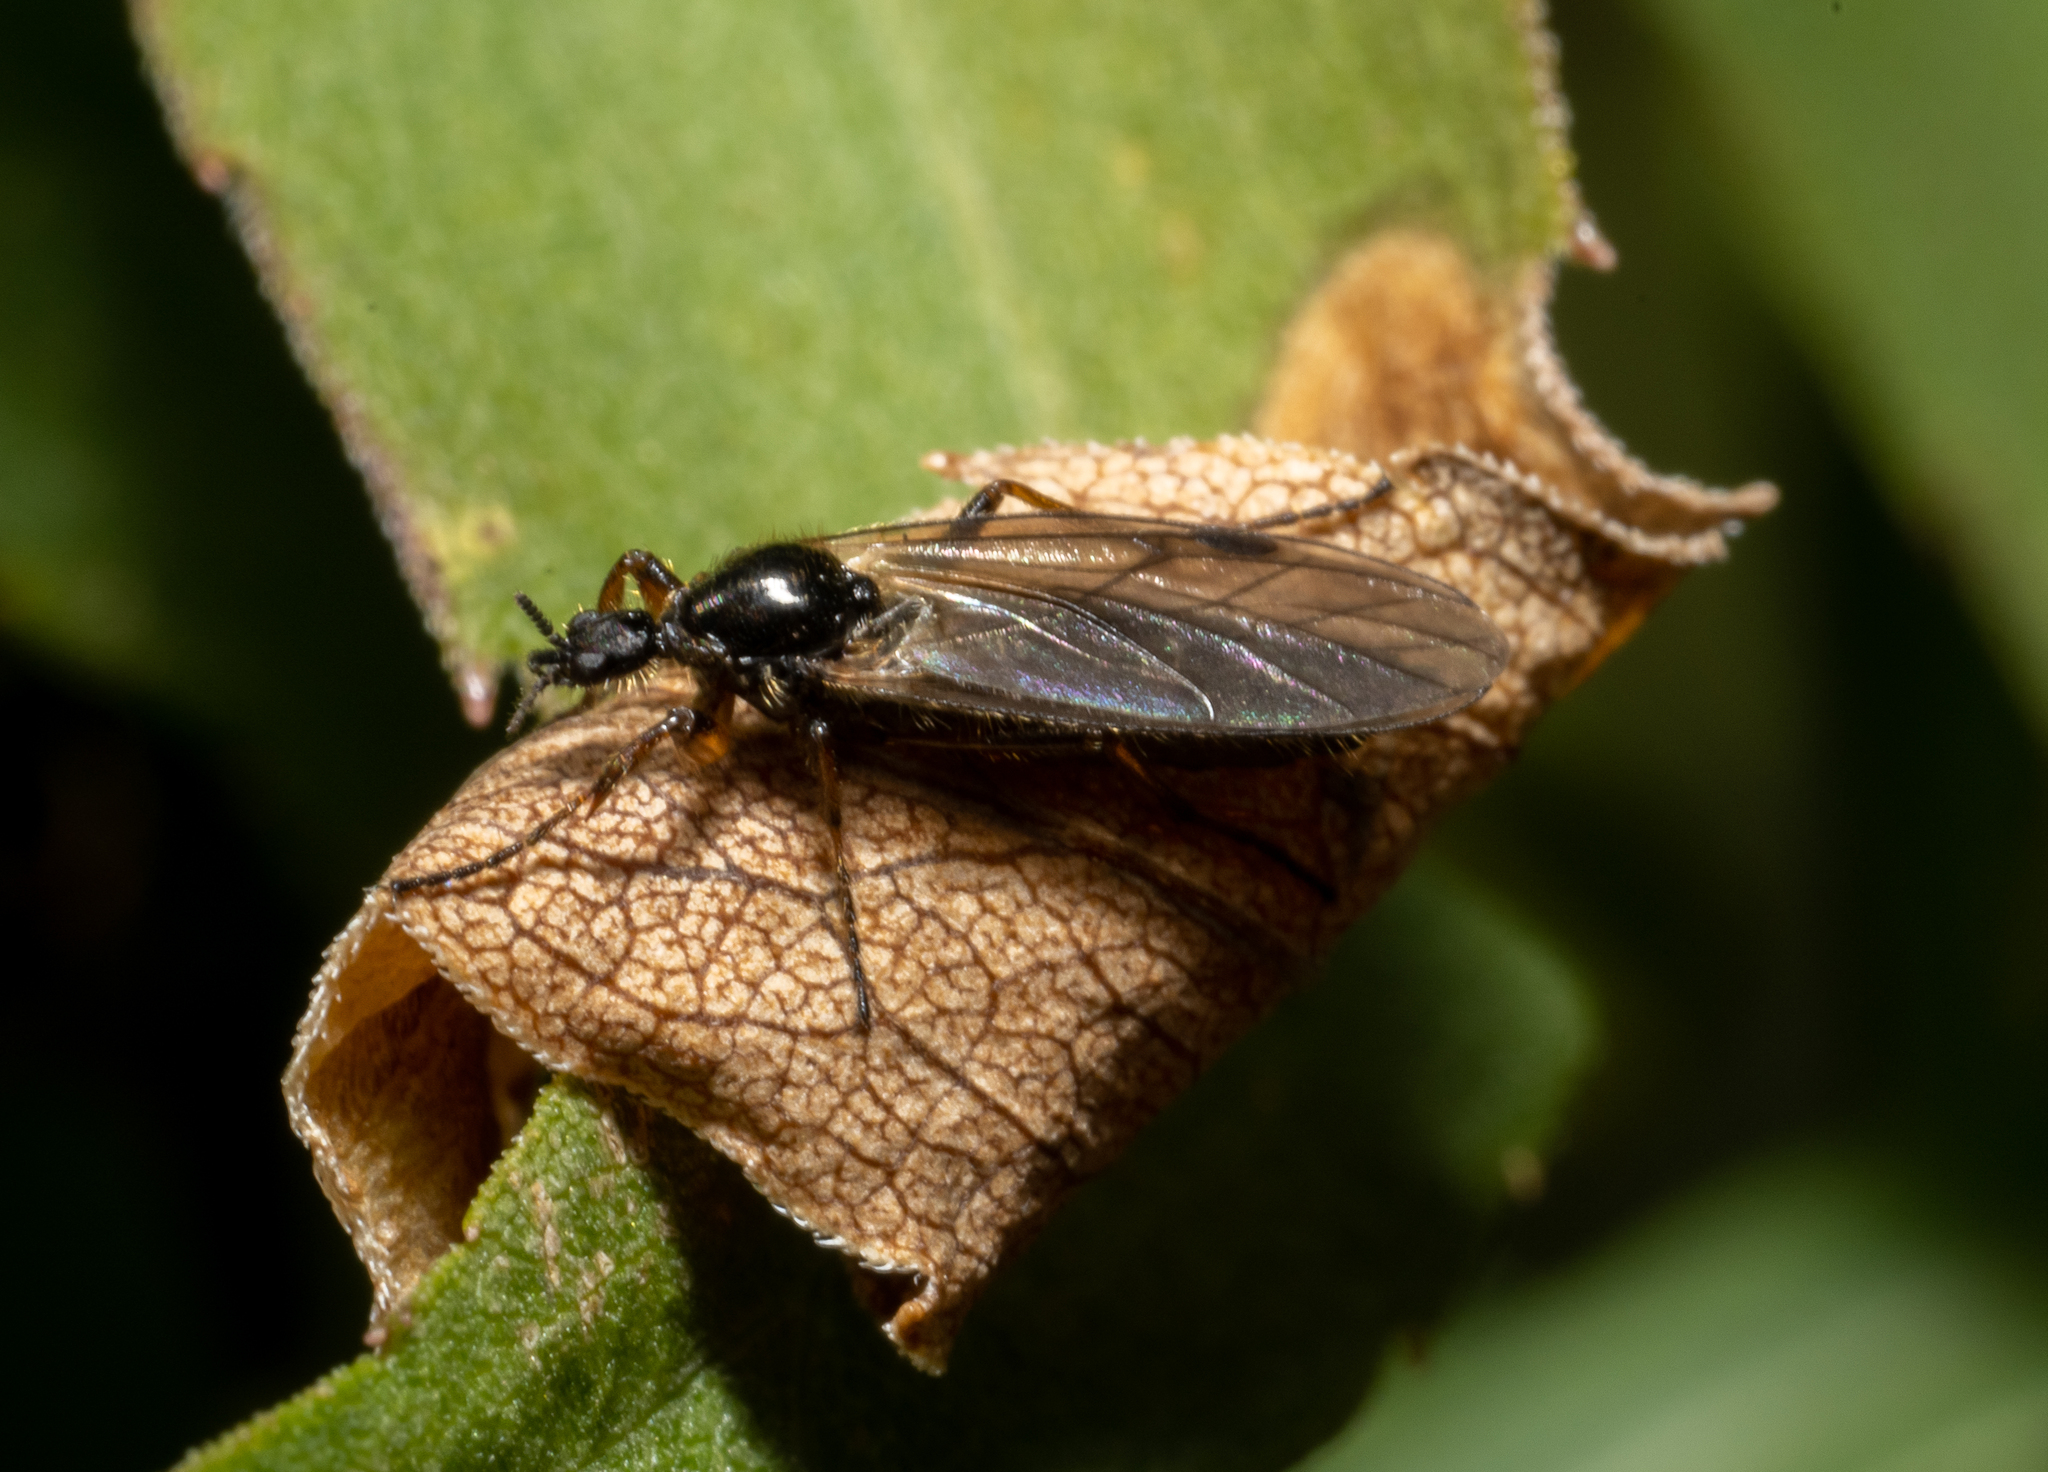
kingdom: Animalia
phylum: Arthropoda
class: Insecta
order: Diptera
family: Bibionidae
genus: Bibio
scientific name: Bibio slossonae
